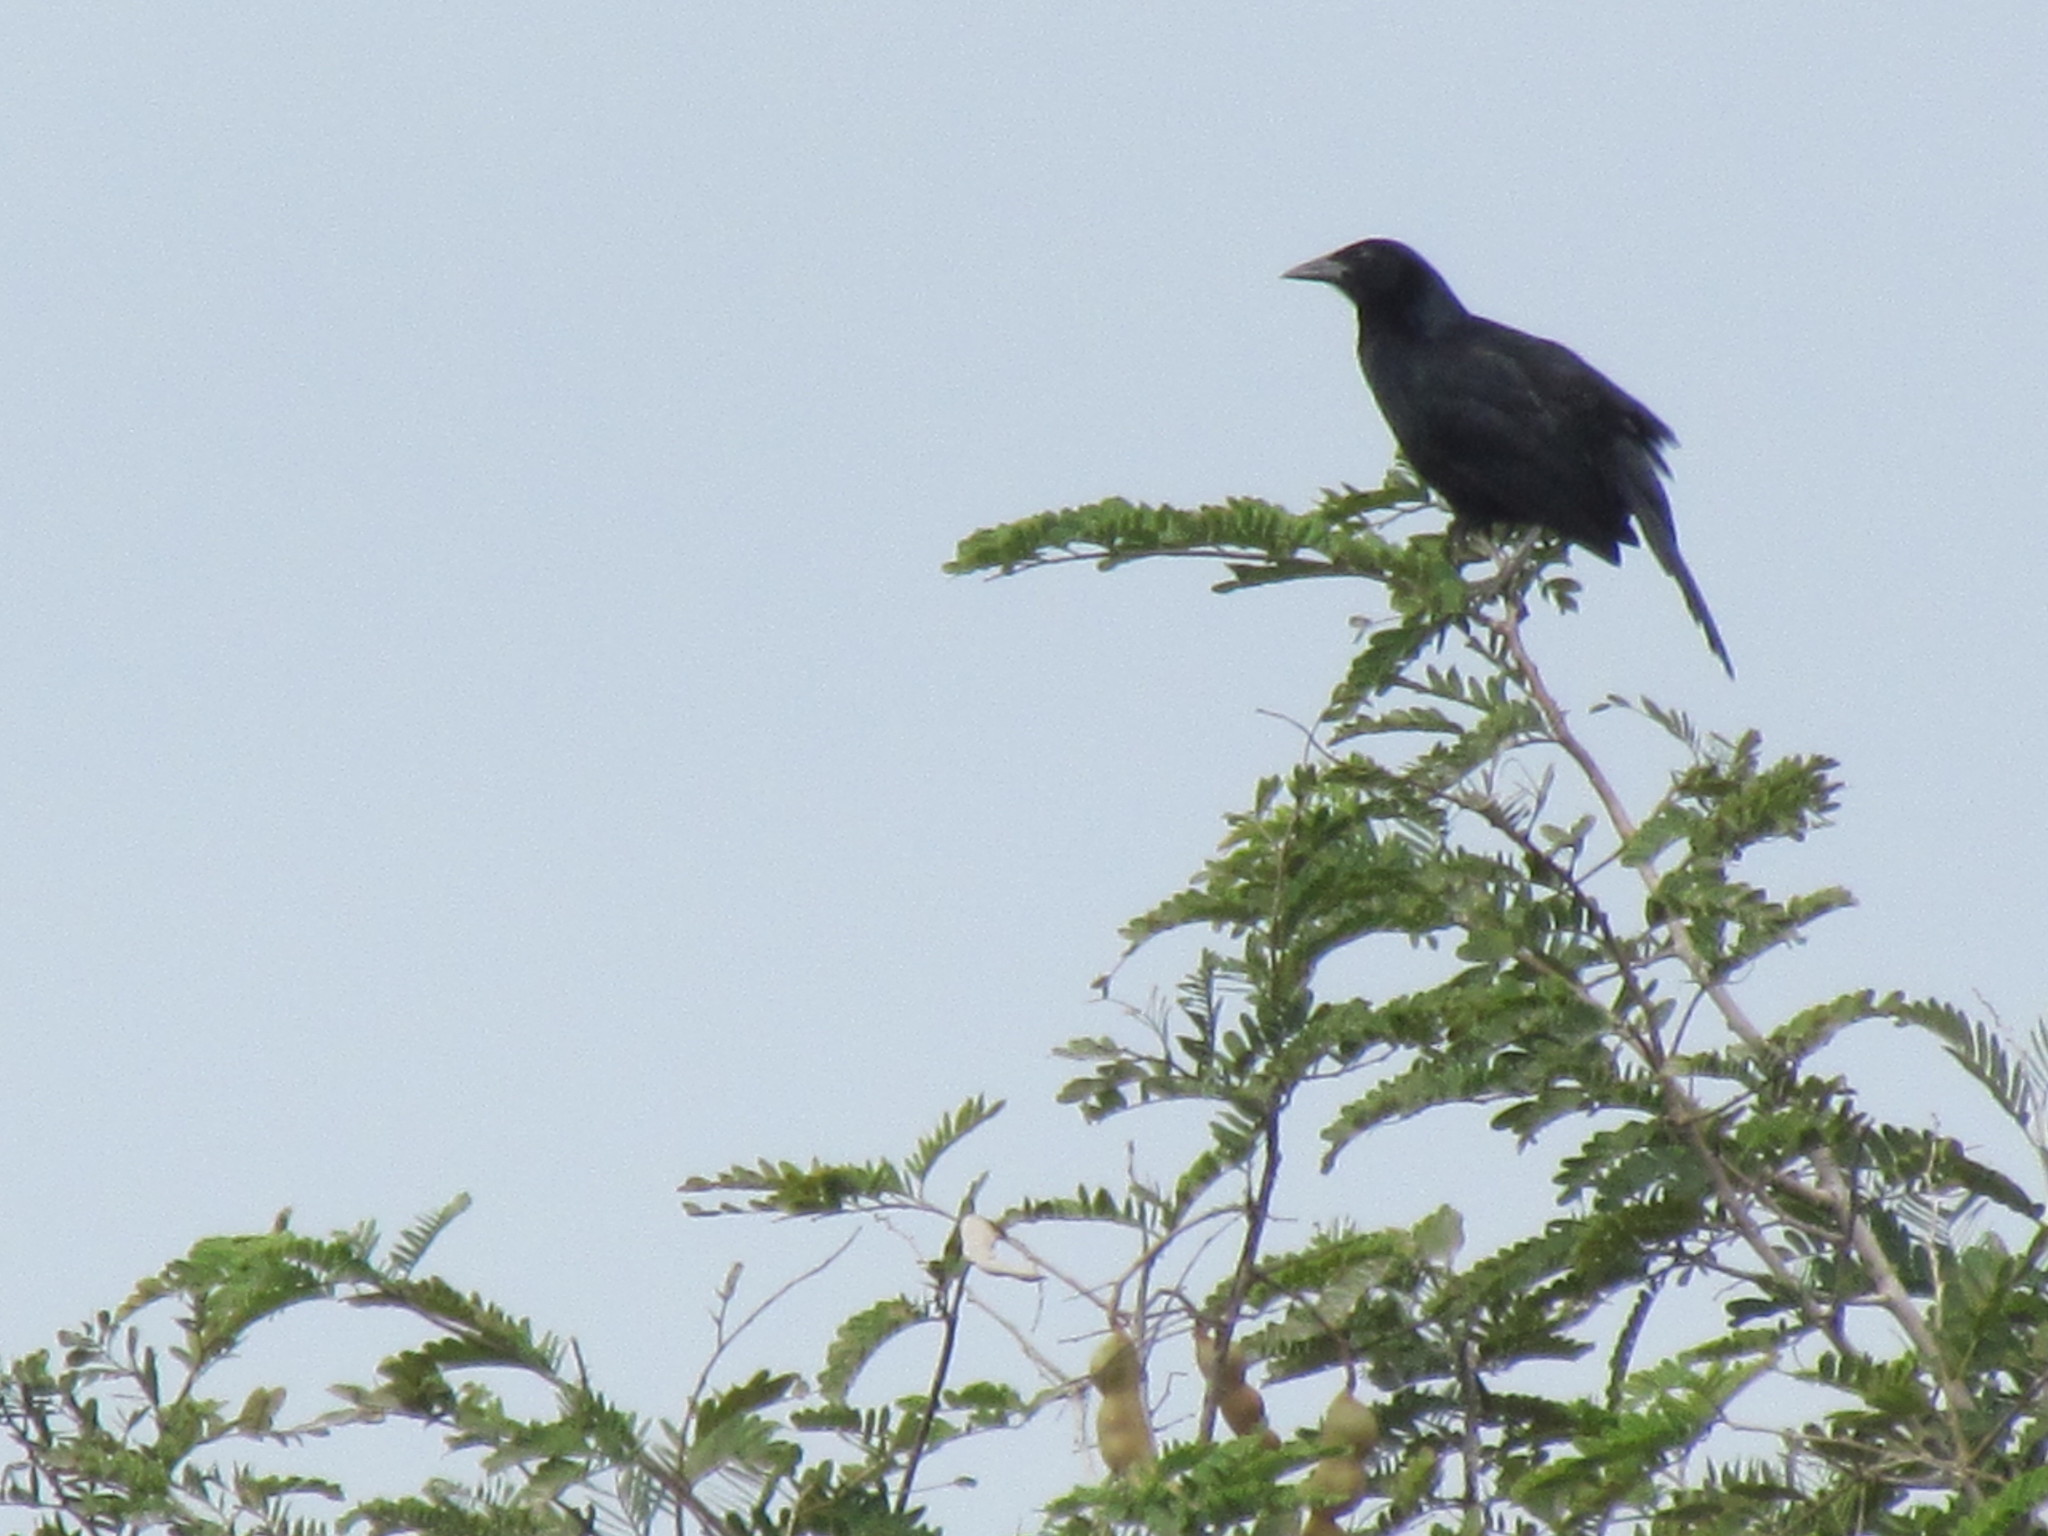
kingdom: Animalia
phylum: Chordata
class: Aves
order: Passeriformes
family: Icteridae
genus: Dives
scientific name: Dives dives
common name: Melodious blackbird
